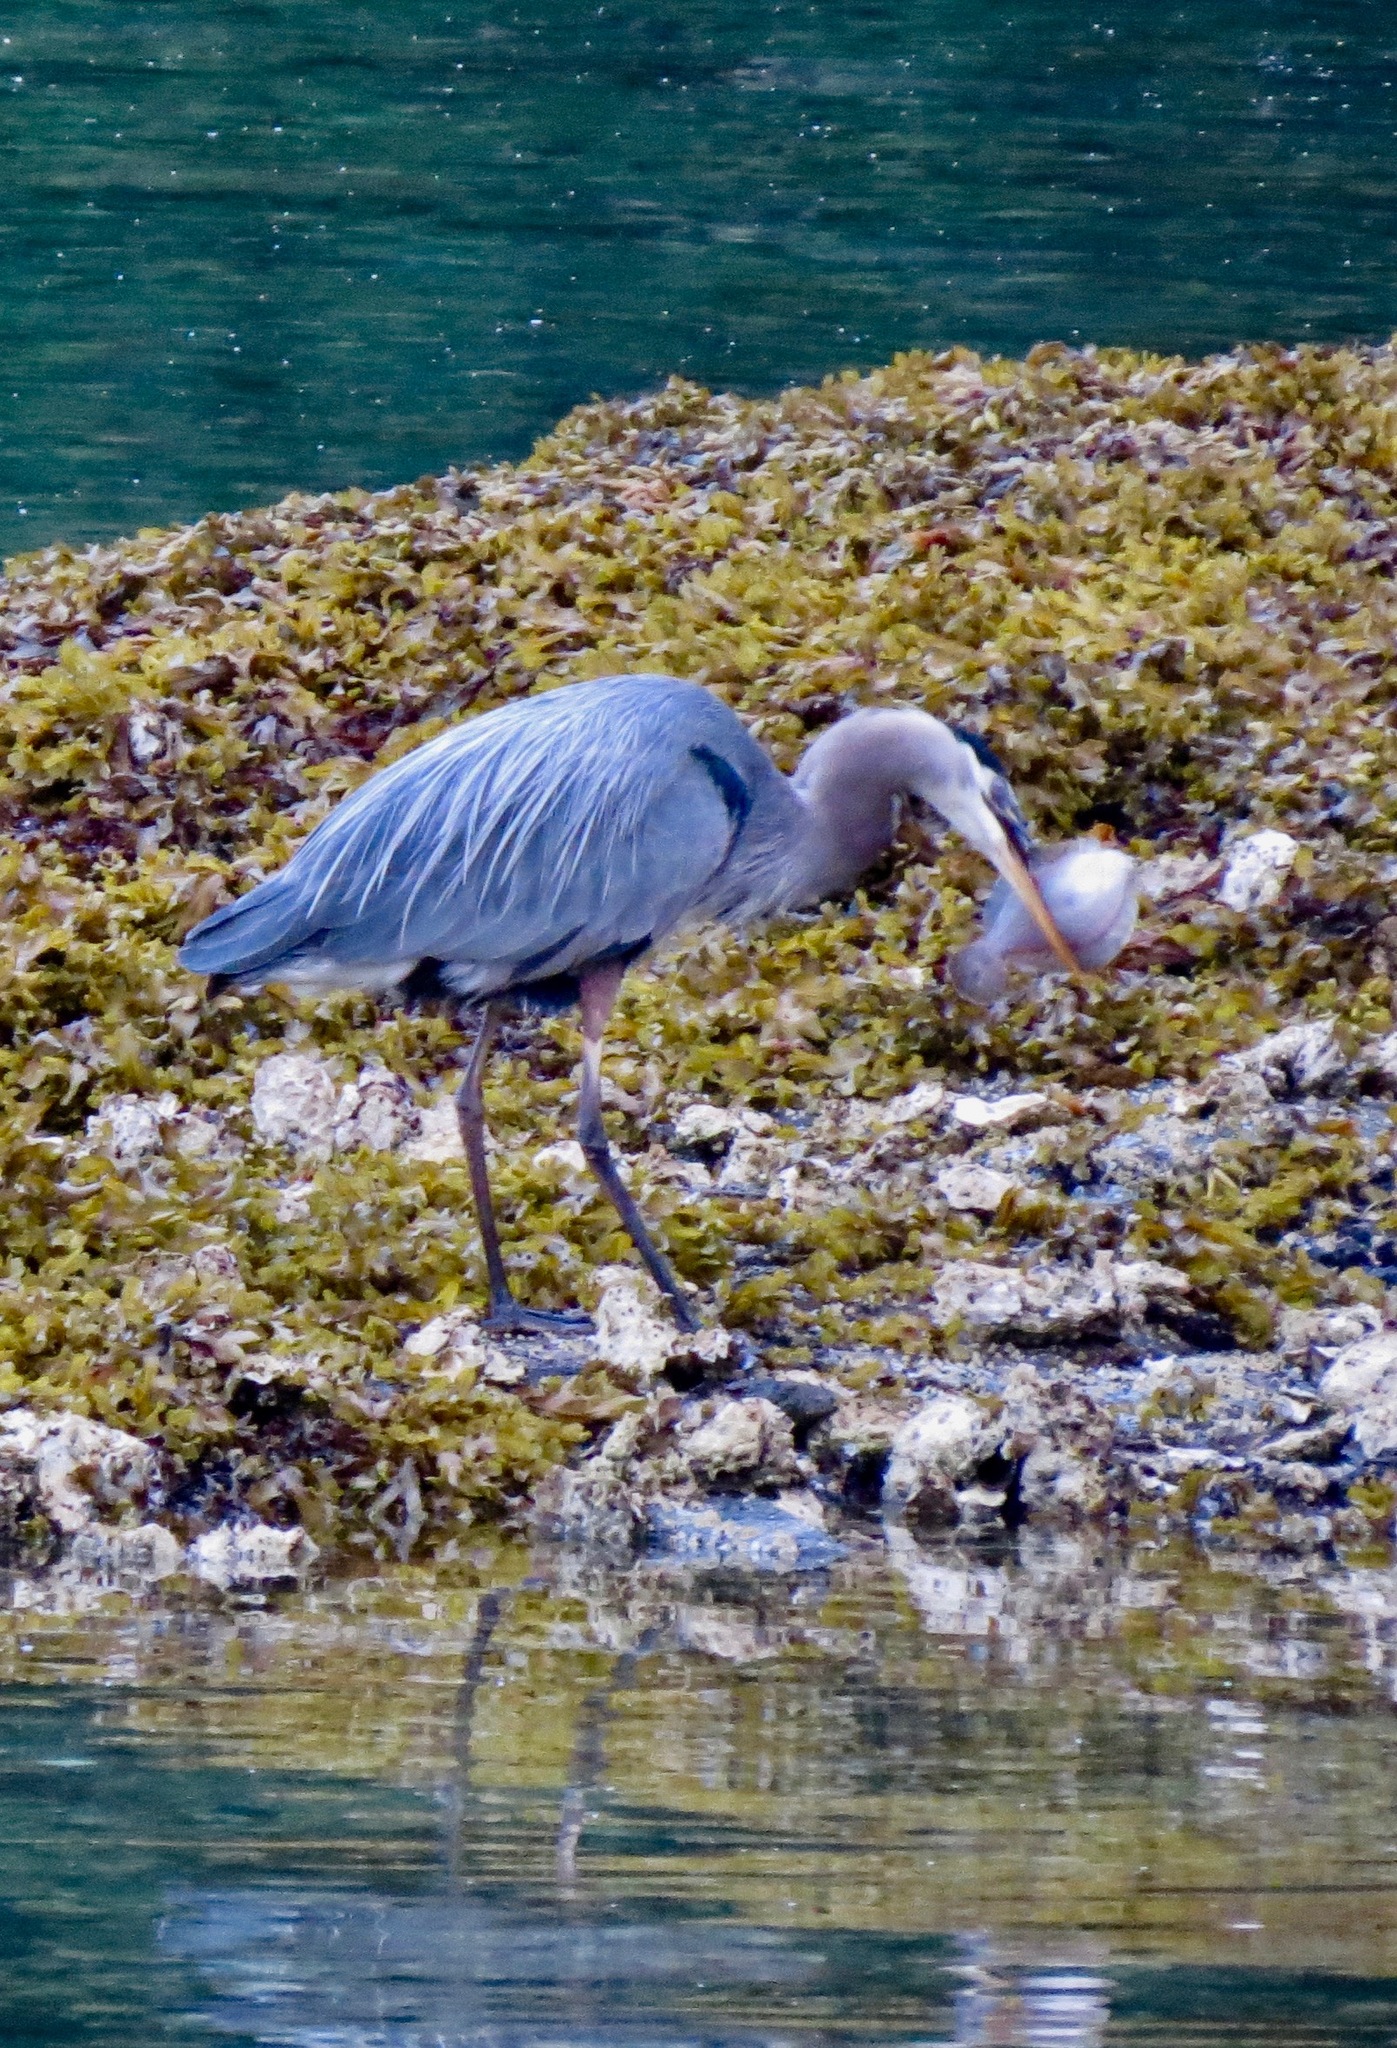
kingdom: Animalia
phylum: Chordata
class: Aves
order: Pelecaniformes
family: Ardeidae
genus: Ardea
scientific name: Ardea herodias
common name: Great blue heron
